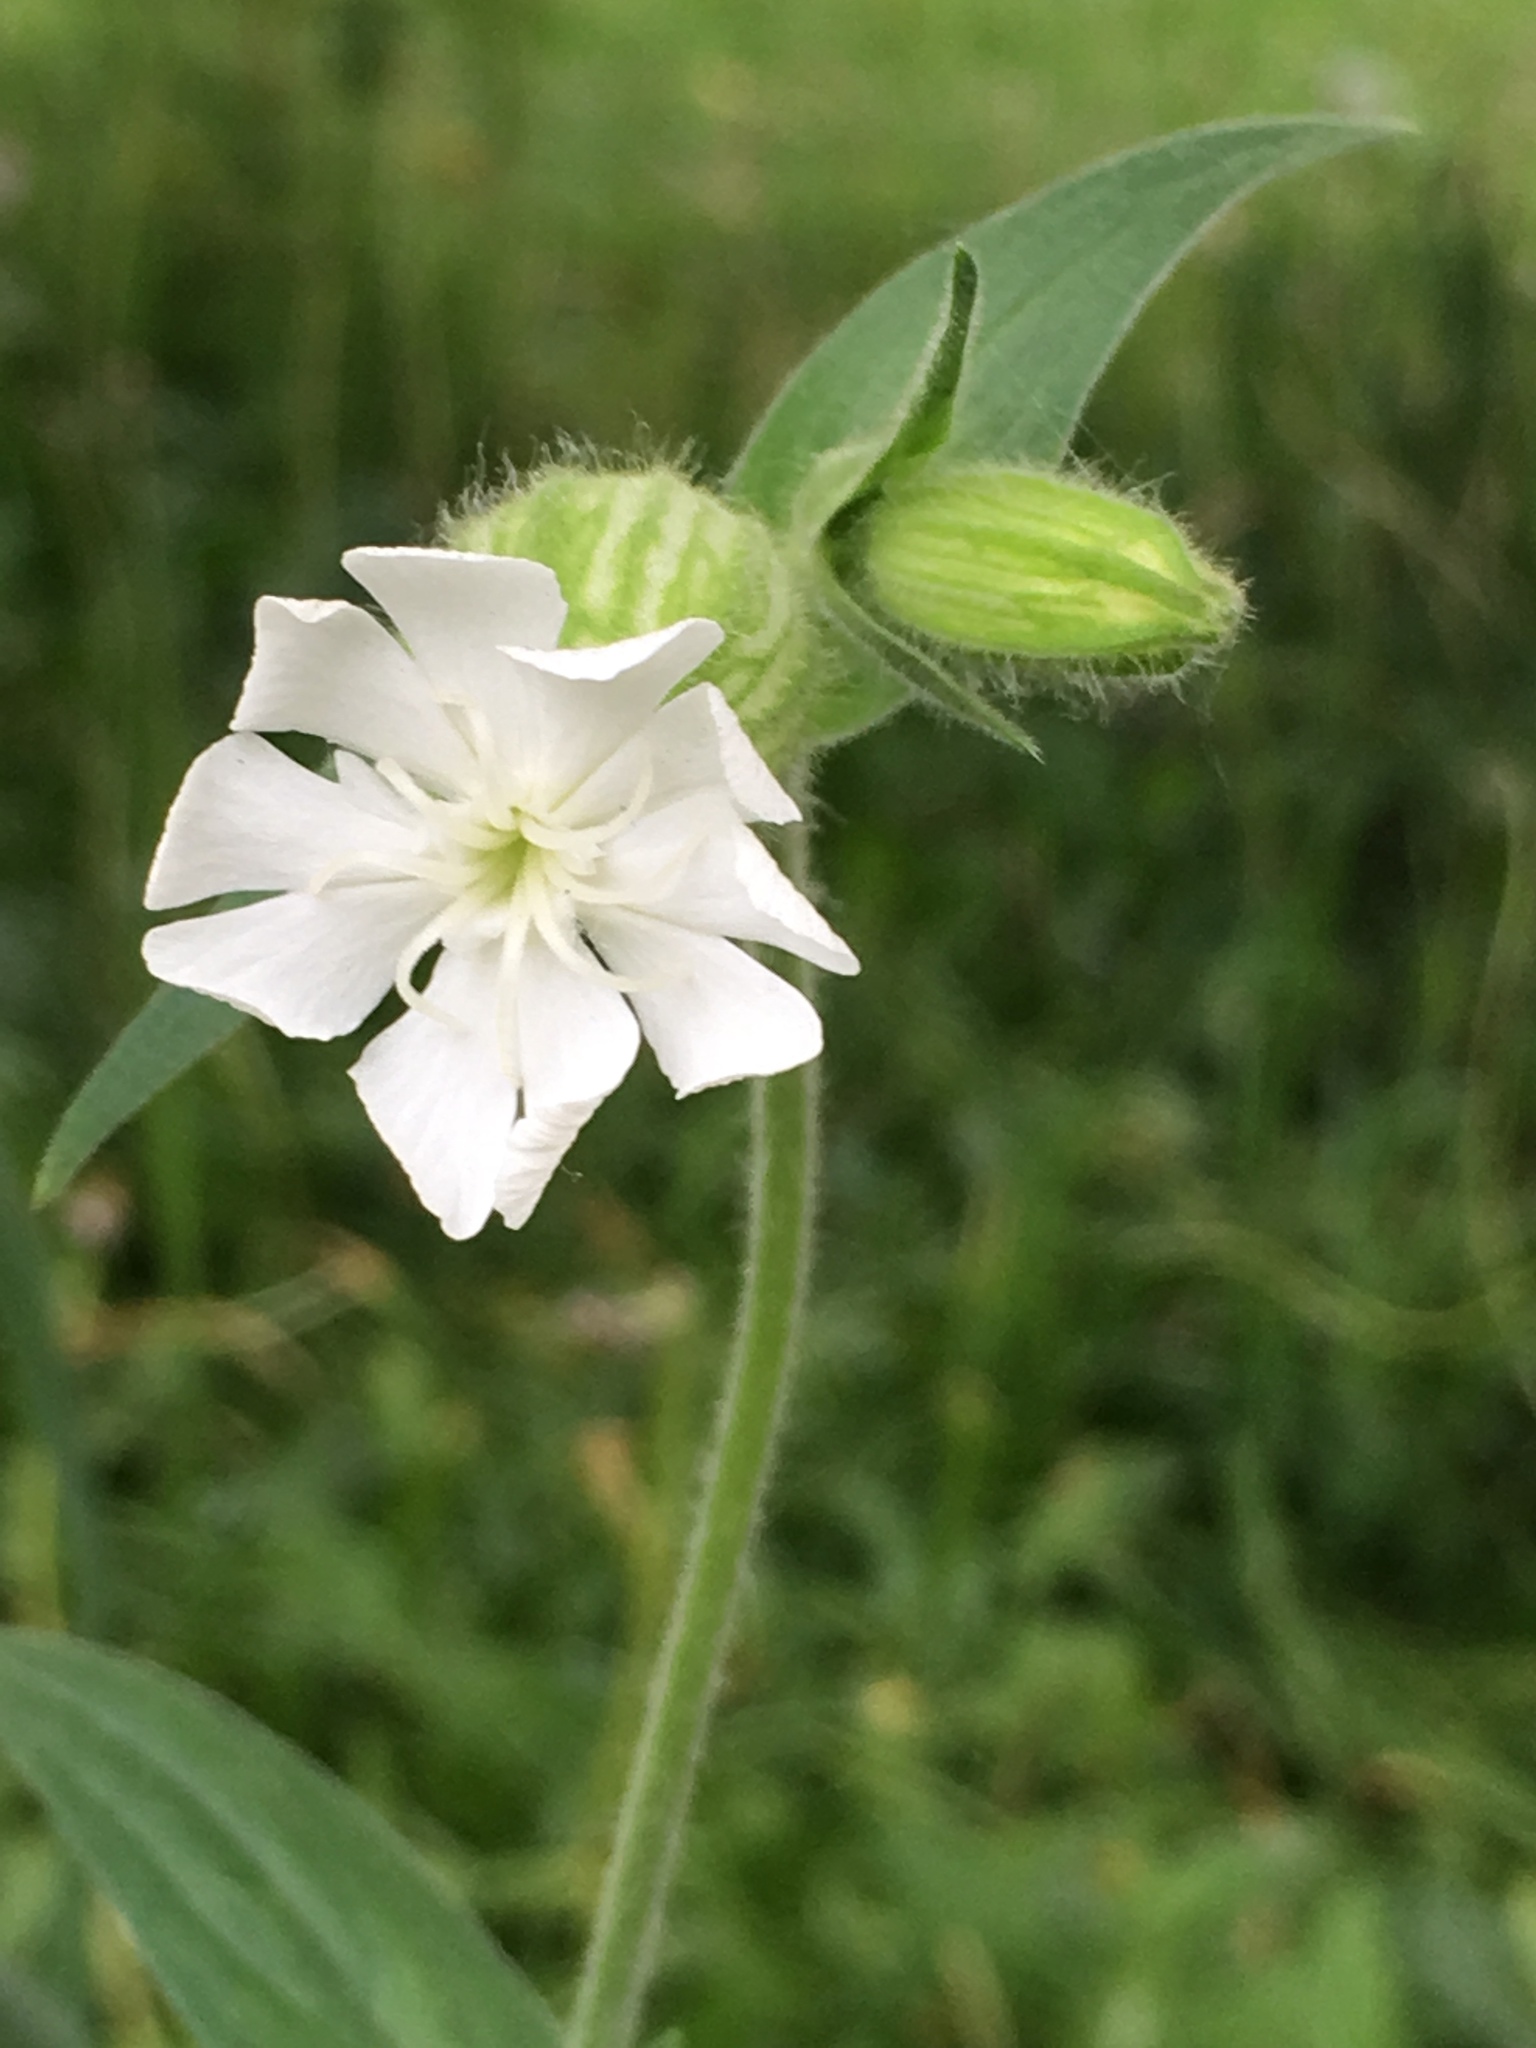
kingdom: Plantae
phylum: Tracheophyta
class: Magnoliopsida
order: Caryophyllales
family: Caryophyllaceae
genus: Silene
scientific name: Silene latifolia
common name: White campion
